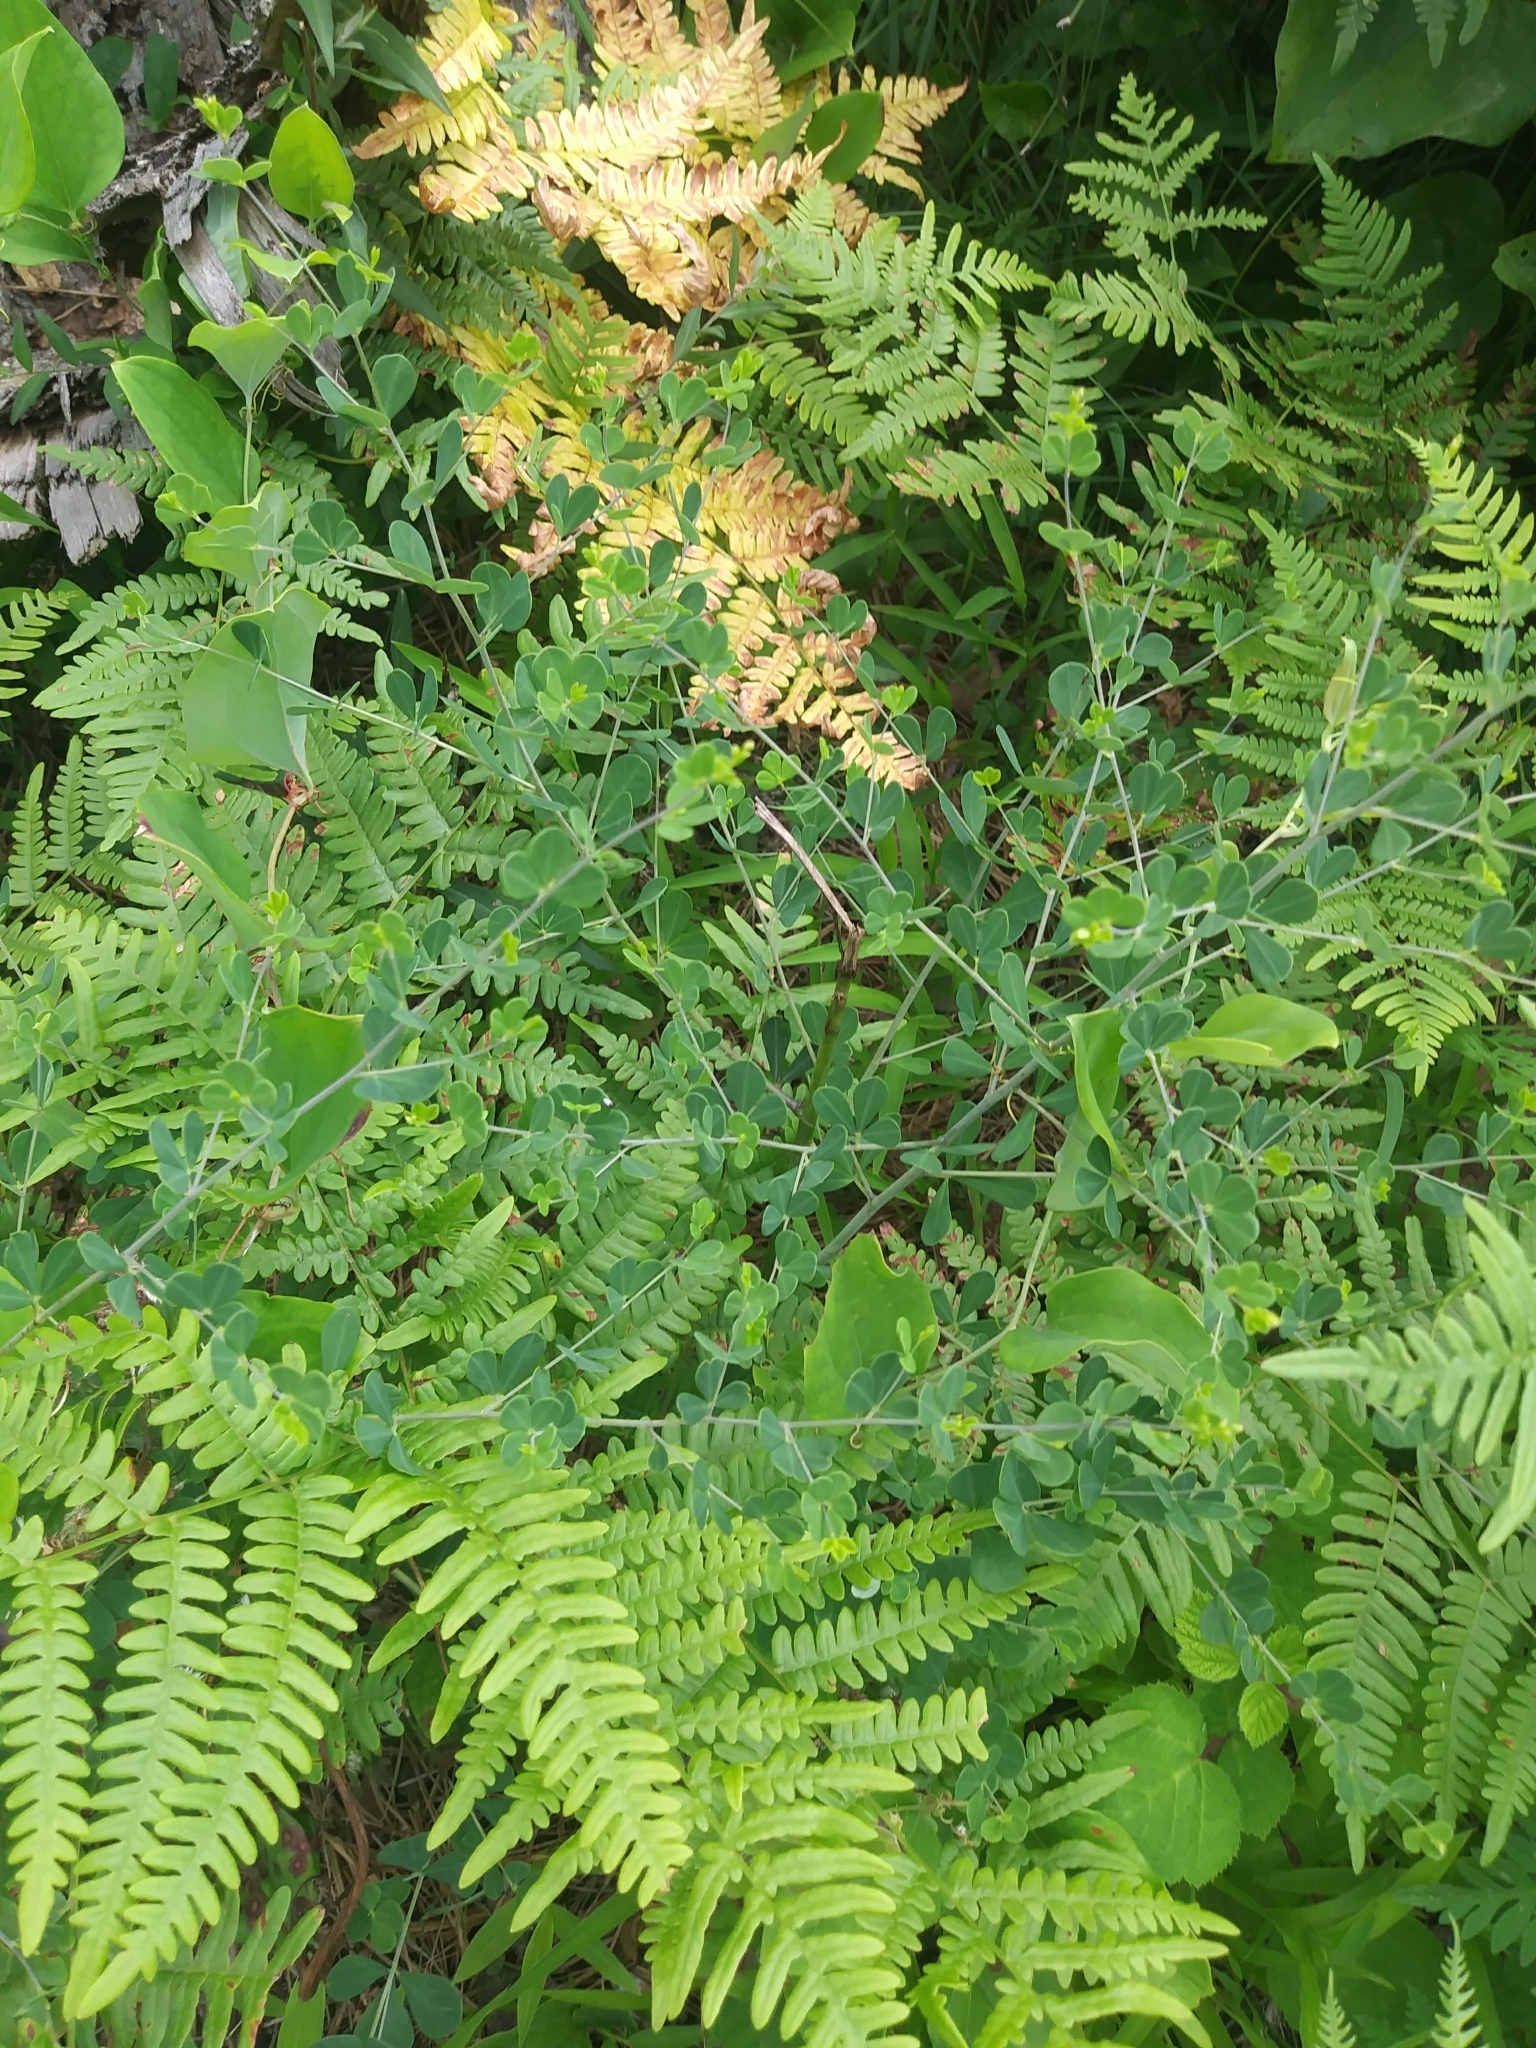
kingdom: Plantae
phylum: Tracheophyta
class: Magnoliopsida
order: Fabales
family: Fabaceae
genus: Baptisia
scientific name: Baptisia tinctoria
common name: Wild indigo
